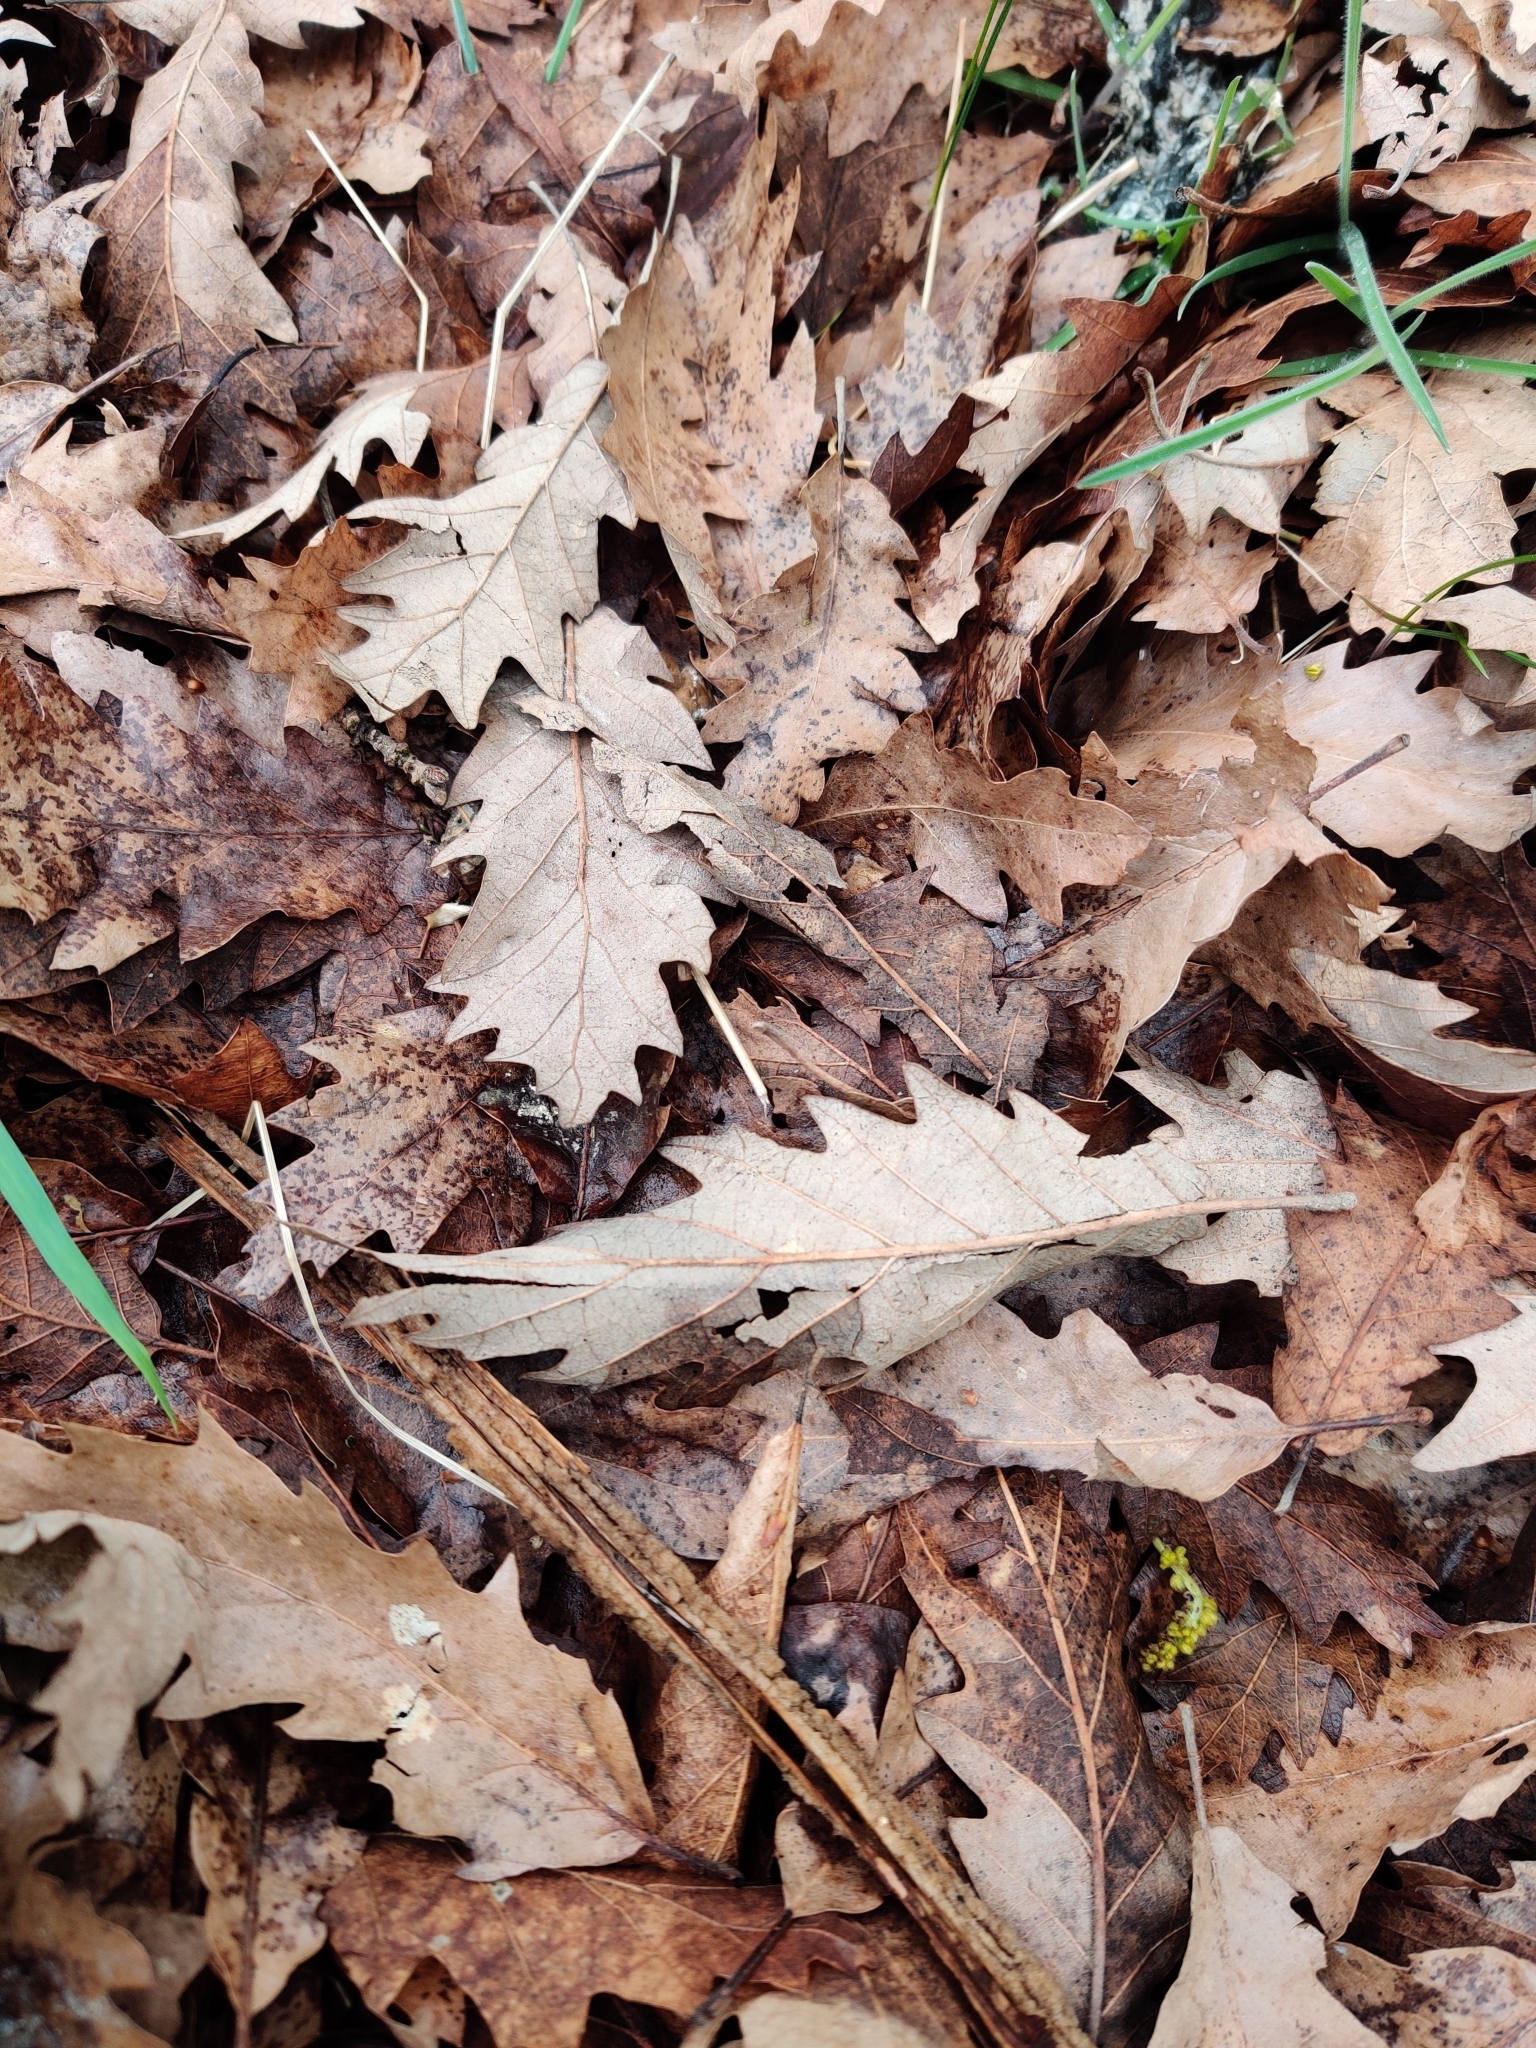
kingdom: Plantae
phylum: Tracheophyta
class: Magnoliopsida
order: Fagales
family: Fagaceae
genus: Quercus
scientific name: Quercus cerris
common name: Turkey oak
